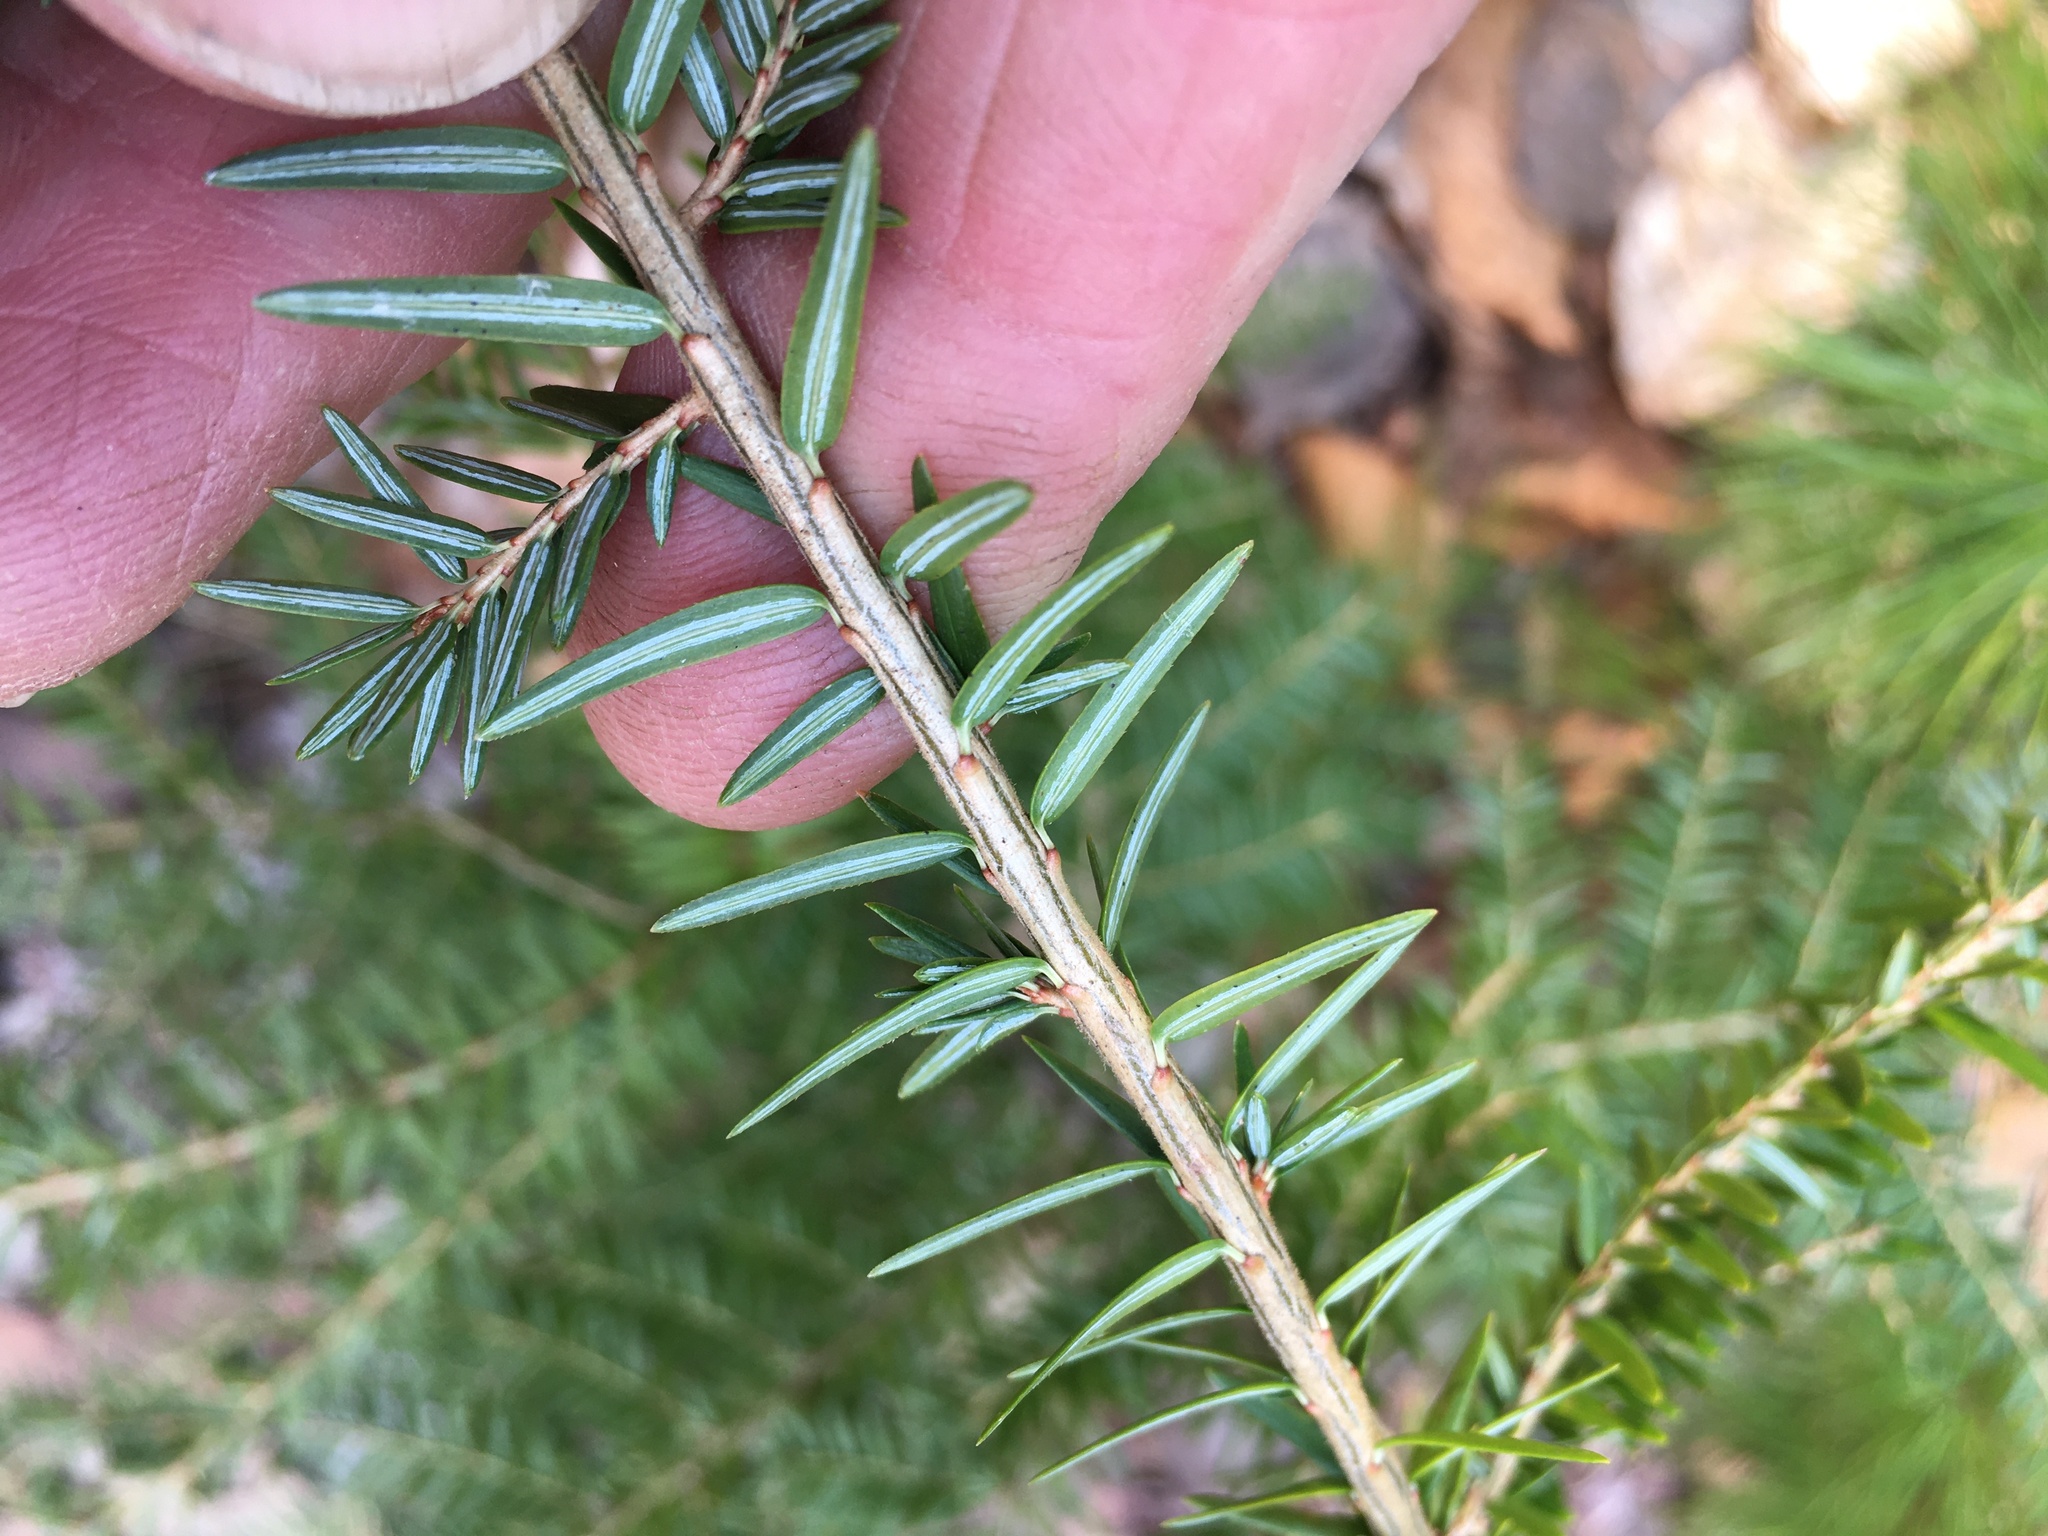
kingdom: Plantae
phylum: Tracheophyta
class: Pinopsida
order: Pinales
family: Pinaceae
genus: Tsuga
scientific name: Tsuga canadensis
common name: Eastern hemlock
